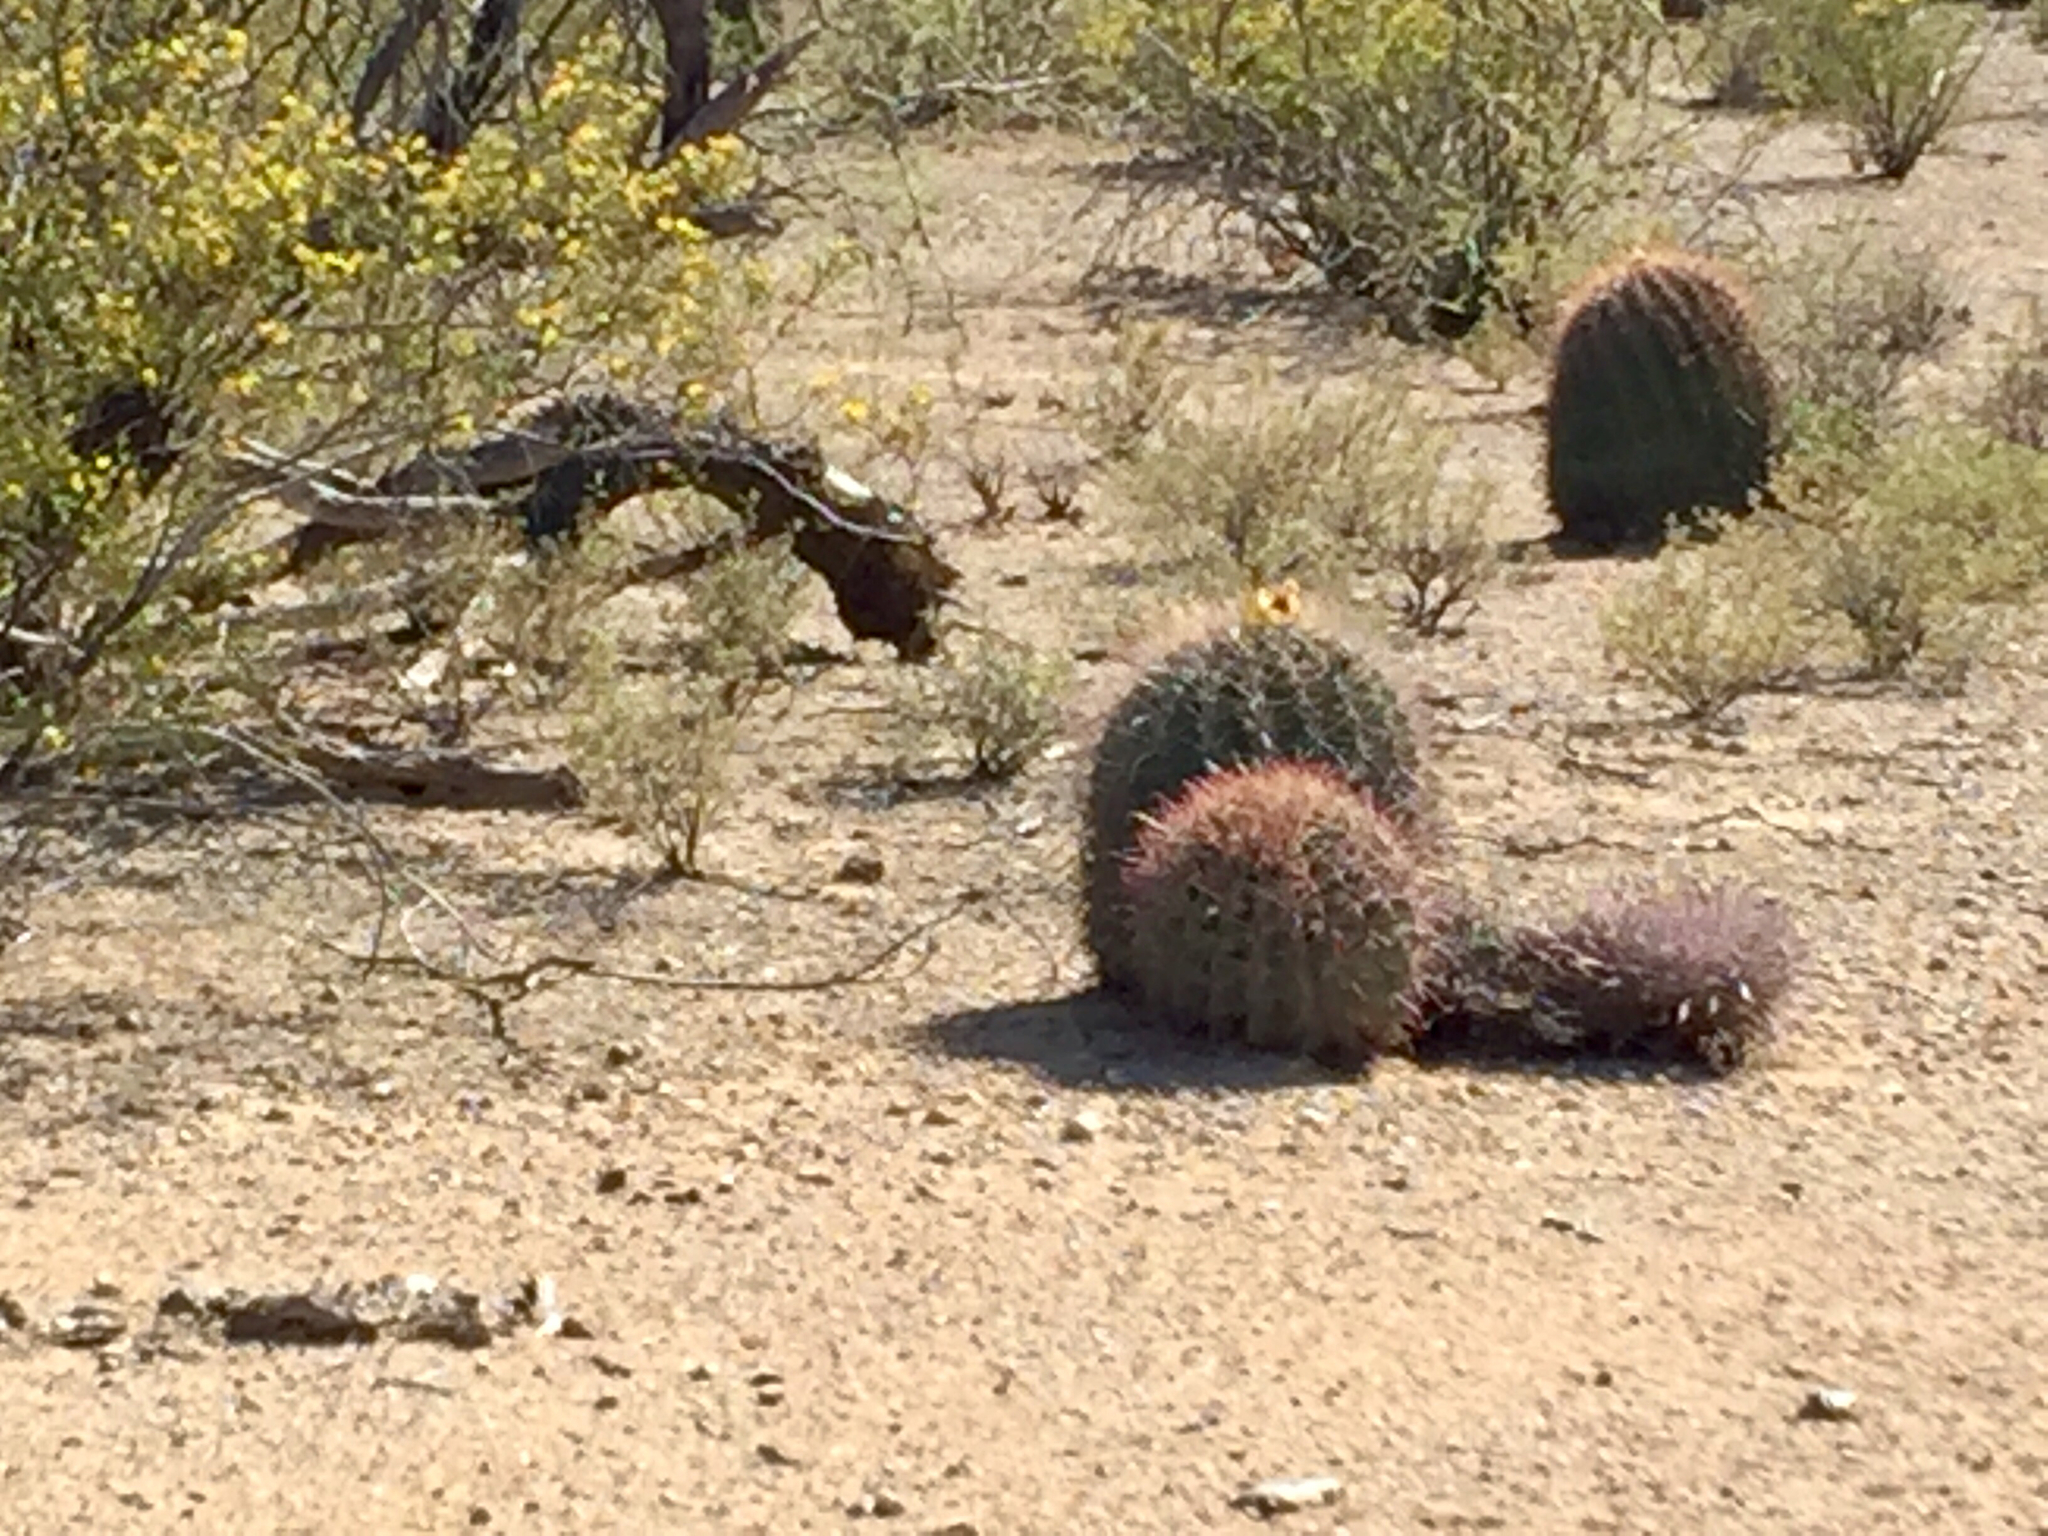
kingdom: Plantae
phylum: Tracheophyta
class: Magnoliopsida
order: Caryophyllales
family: Cactaceae
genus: Ferocactus
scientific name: Ferocactus wislizeni
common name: Candy barrel cactus
